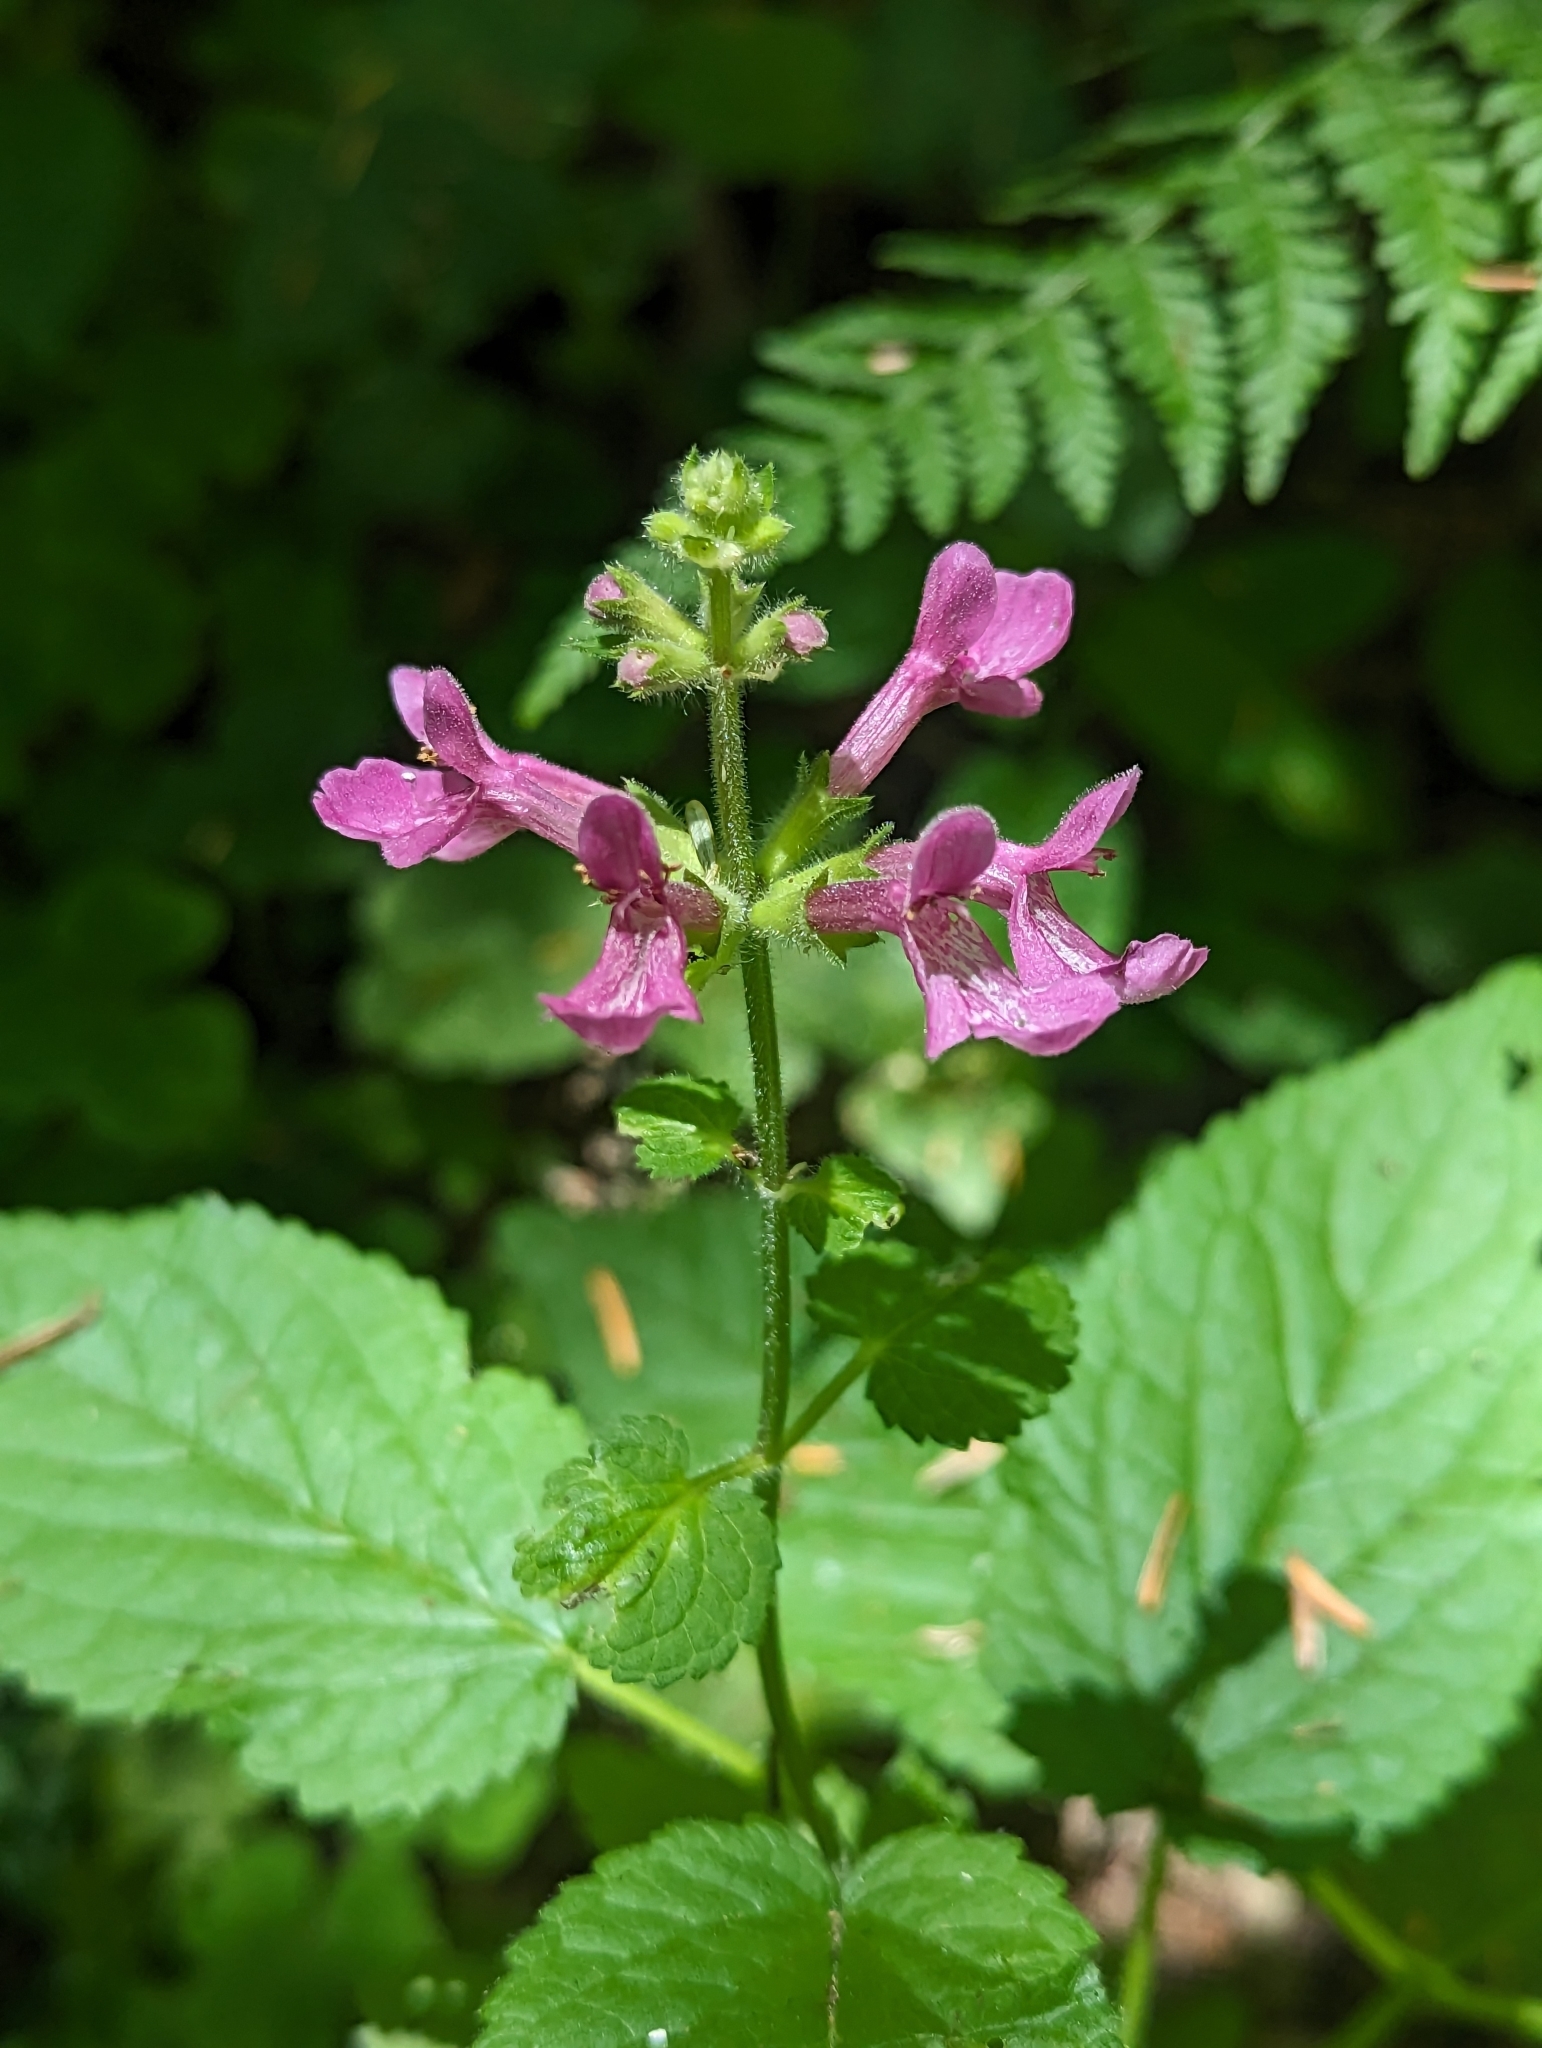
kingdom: Plantae
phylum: Tracheophyta
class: Magnoliopsida
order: Lamiales
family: Lamiaceae
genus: Stachys
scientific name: Stachys chamissonis
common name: Coastal hedge-nettle
